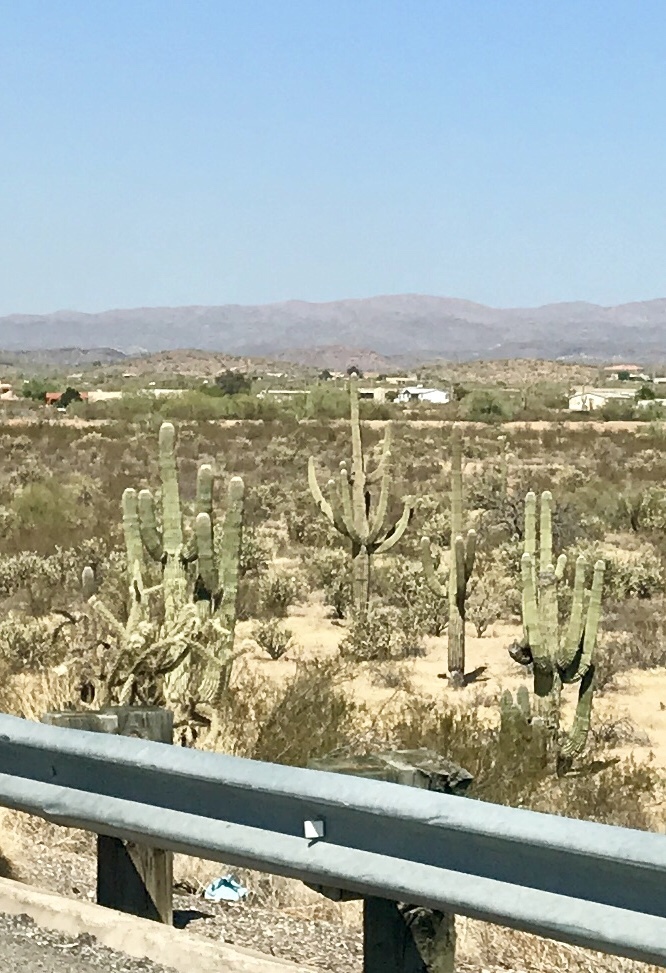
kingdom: Plantae
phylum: Tracheophyta
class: Magnoliopsida
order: Caryophyllales
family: Cactaceae
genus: Carnegiea
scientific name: Carnegiea gigantea
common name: Saguaro
